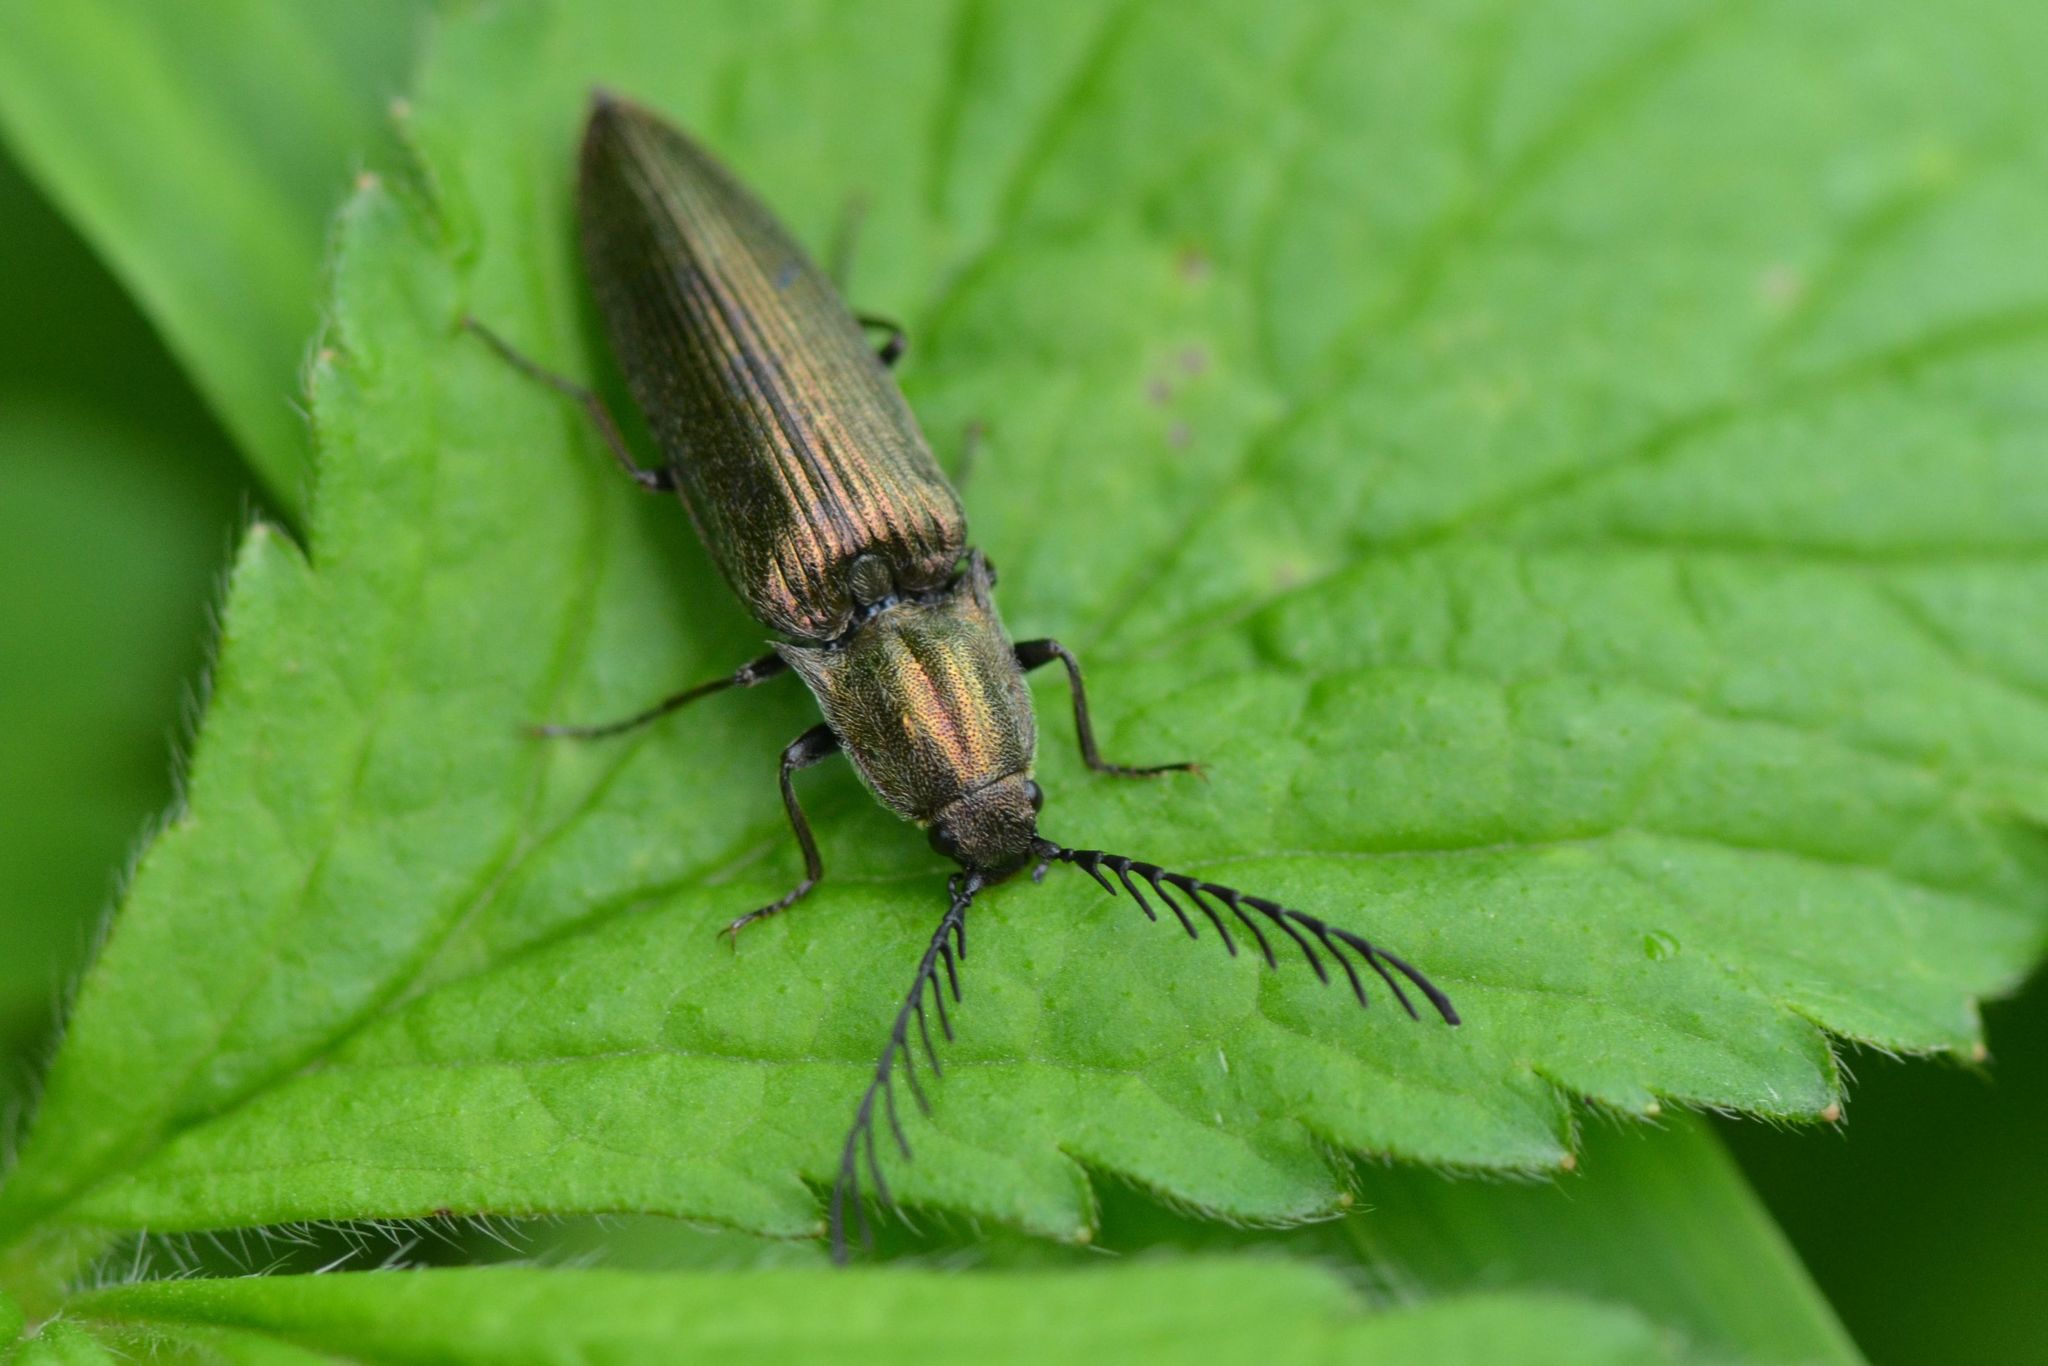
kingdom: Animalia
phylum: Arthropoda
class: Insecta
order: Coleoptera
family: Elateridae
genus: Ctenicera
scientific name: Ctenicera pectinicornis
